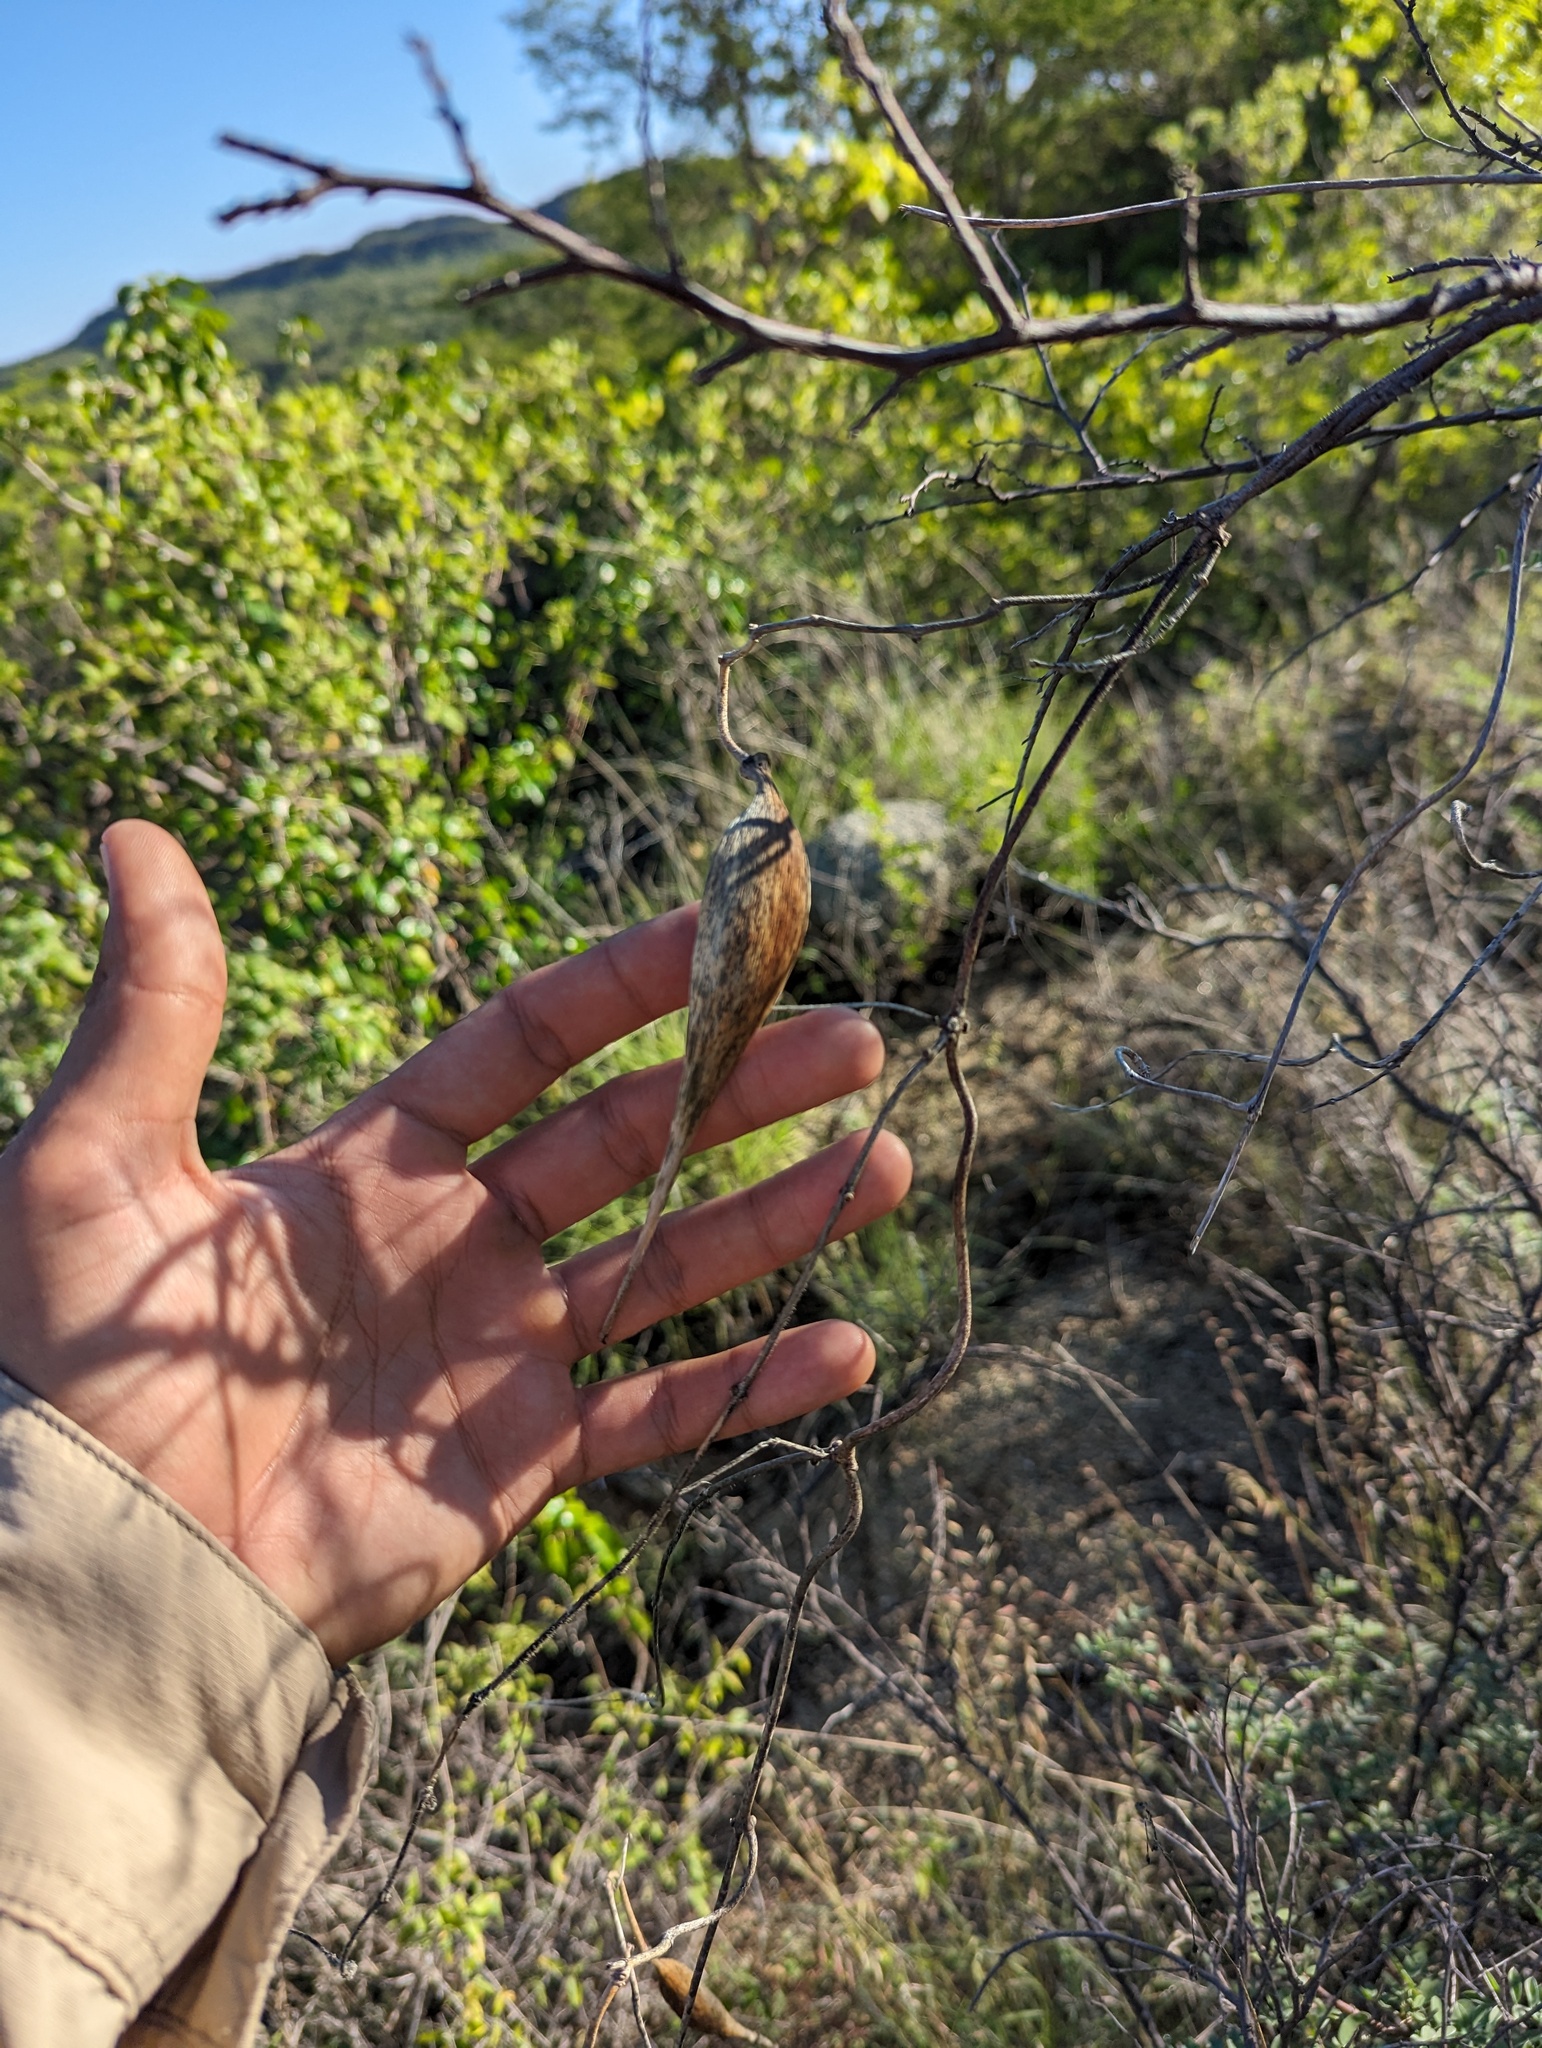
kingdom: Plantae
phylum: Tracheophyta
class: Magnoliopsida
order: Gentianales
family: Apocynaceae
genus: Polystemma
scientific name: Polystemma cordifolium
